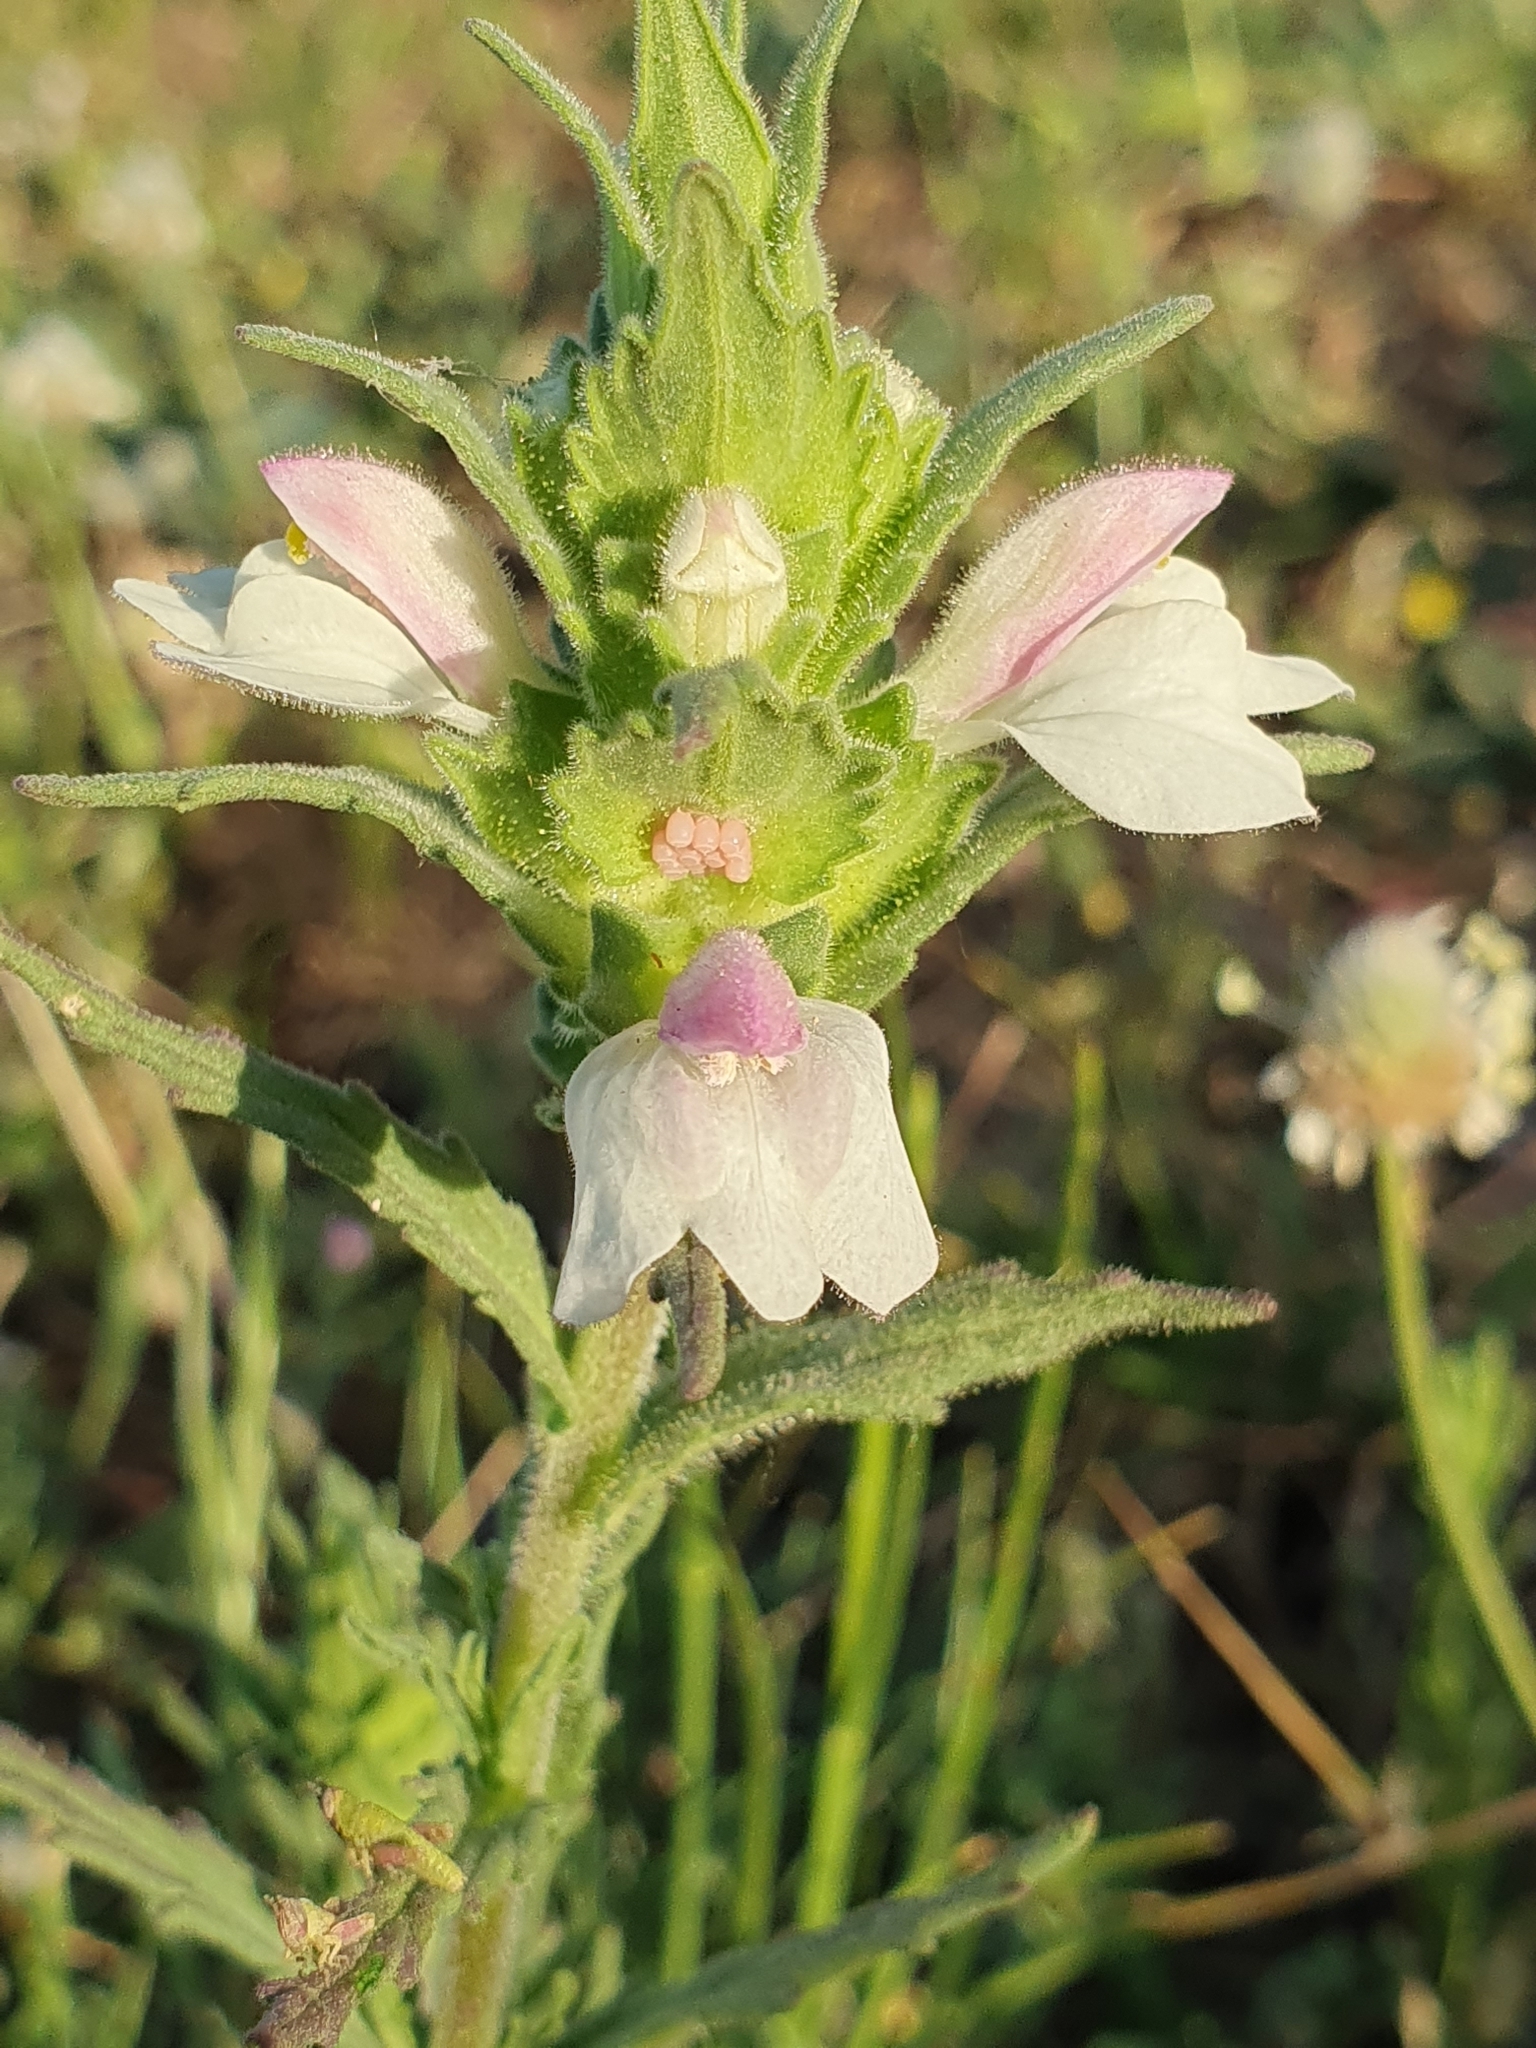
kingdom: Plantae
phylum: Tracheophyta
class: Magnoliopsida
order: Lamiales
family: Orobanchaceae
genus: Bellardia
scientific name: Bellardia trixago
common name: Mediterranean lineseed
